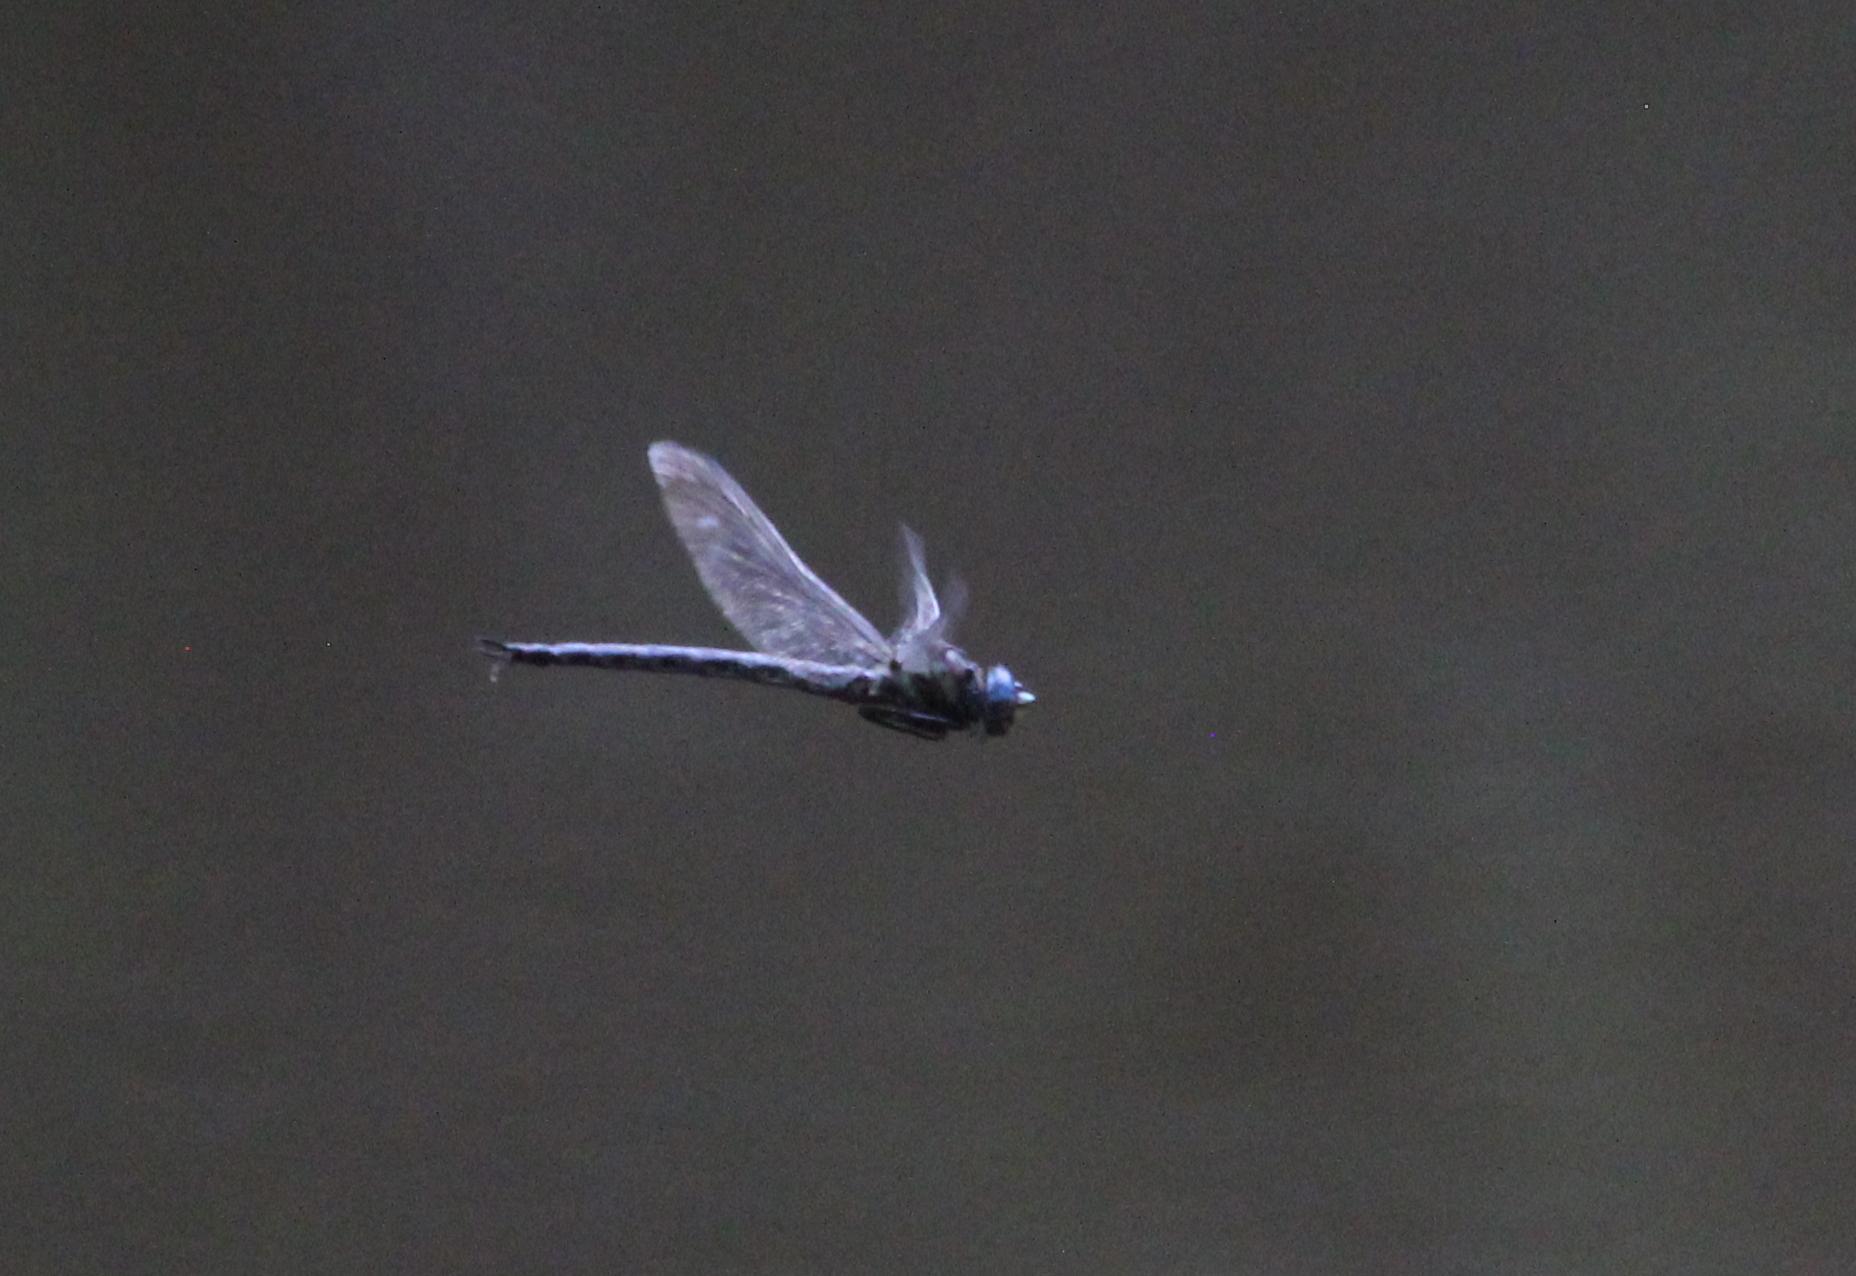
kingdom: Animalia
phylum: Arthropoda
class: Insecta
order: Odonata
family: Aeshnidae
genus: Nasiaeschna
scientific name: Nasiaeschna pentacantha
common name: Cyrano darner
